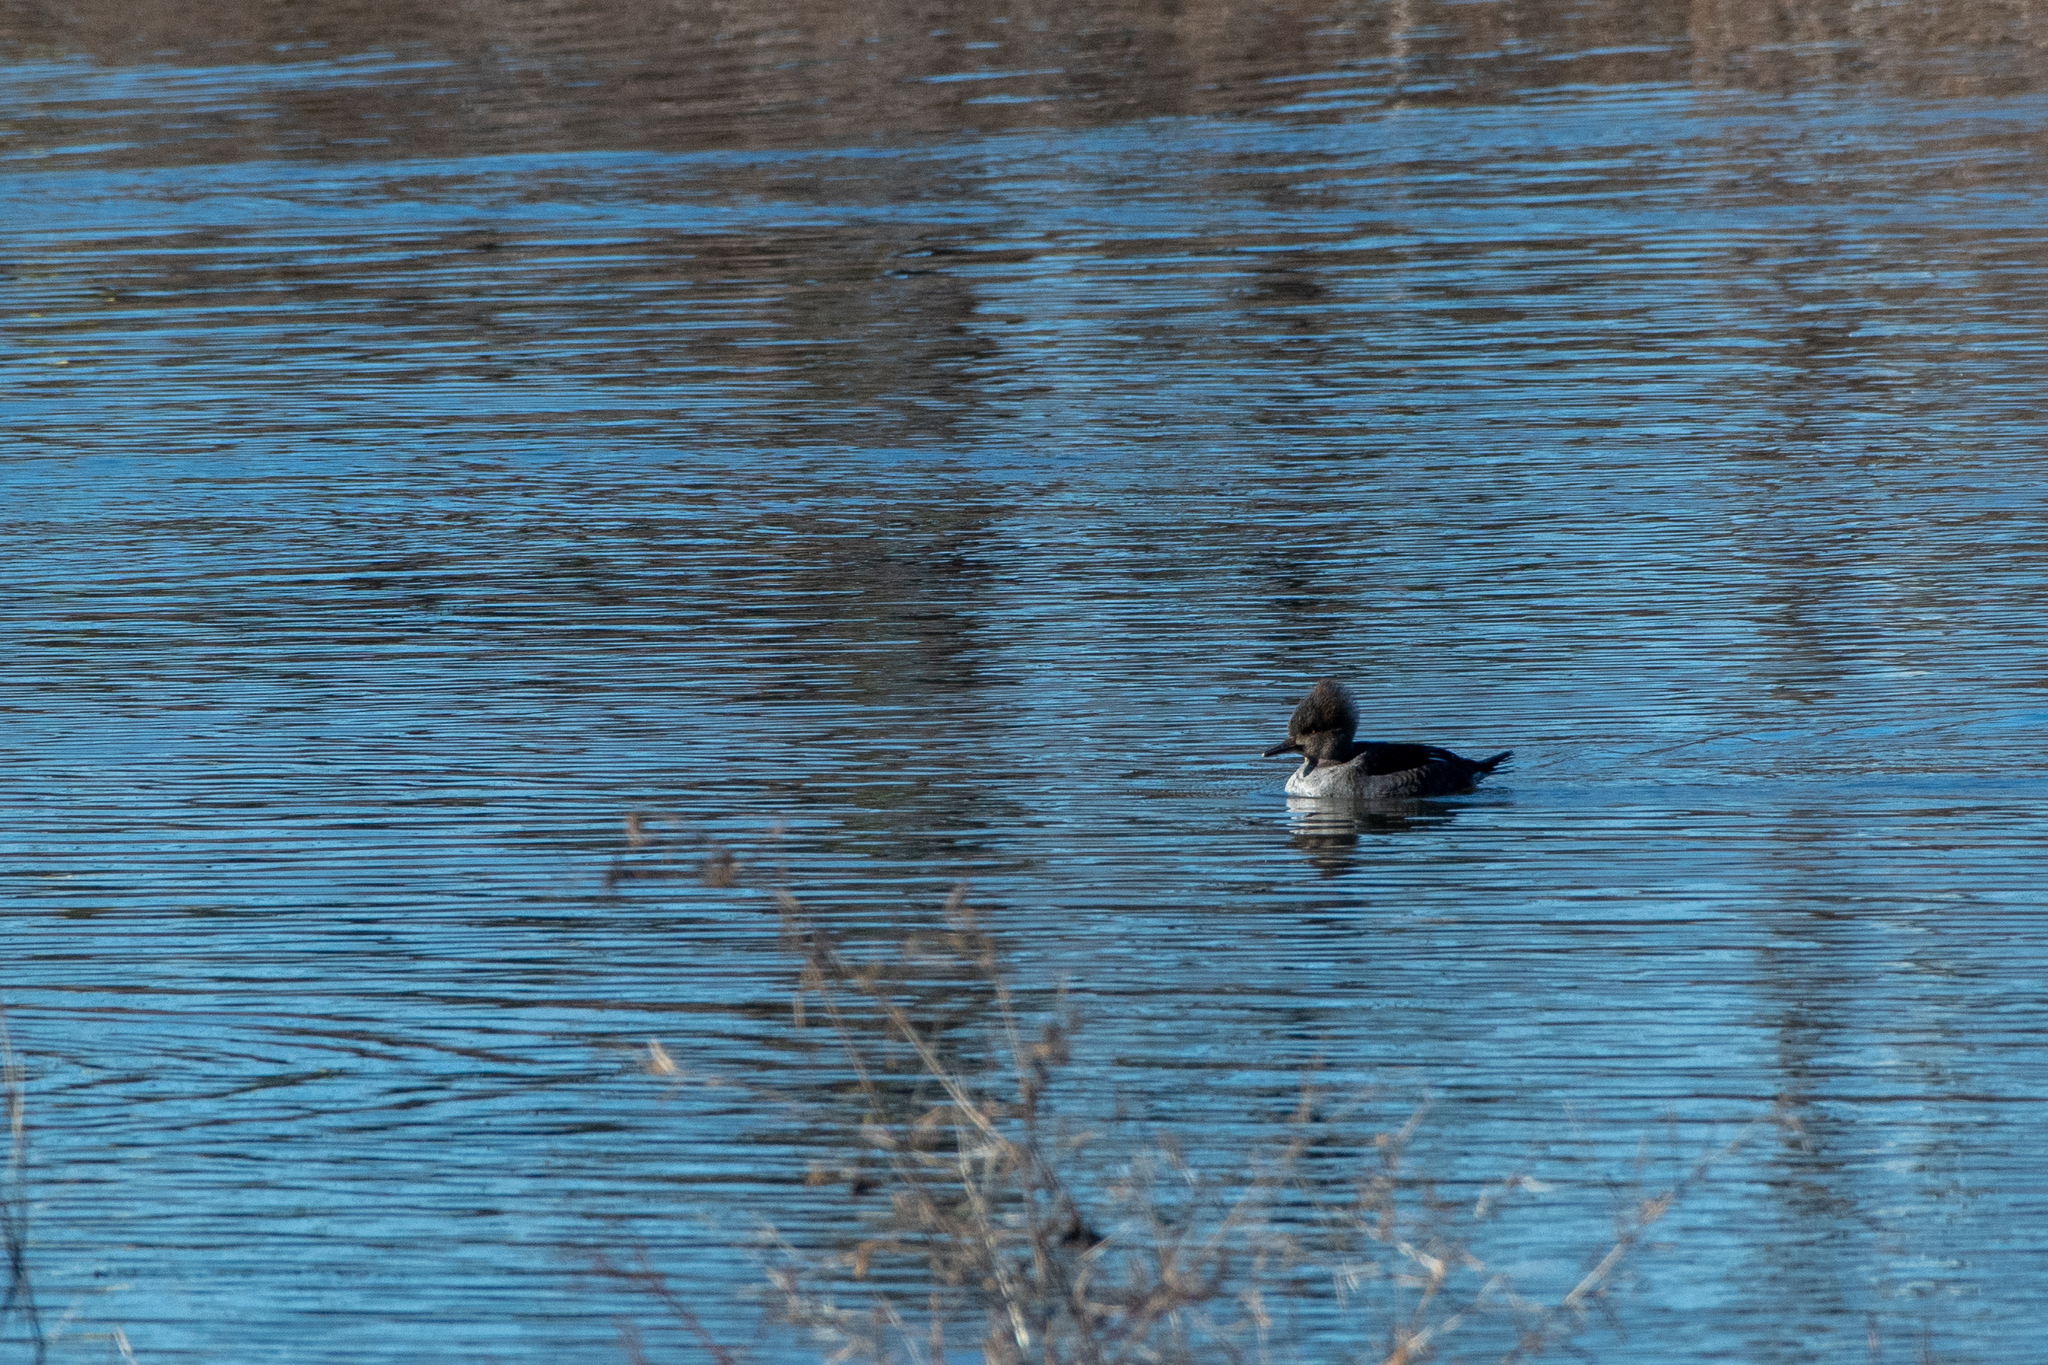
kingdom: Animalia
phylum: Chordata
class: Aves
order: Anseriformes
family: Anatidae
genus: Lophodytes
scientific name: Lophodytes cucullatus
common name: Hooded merganser
